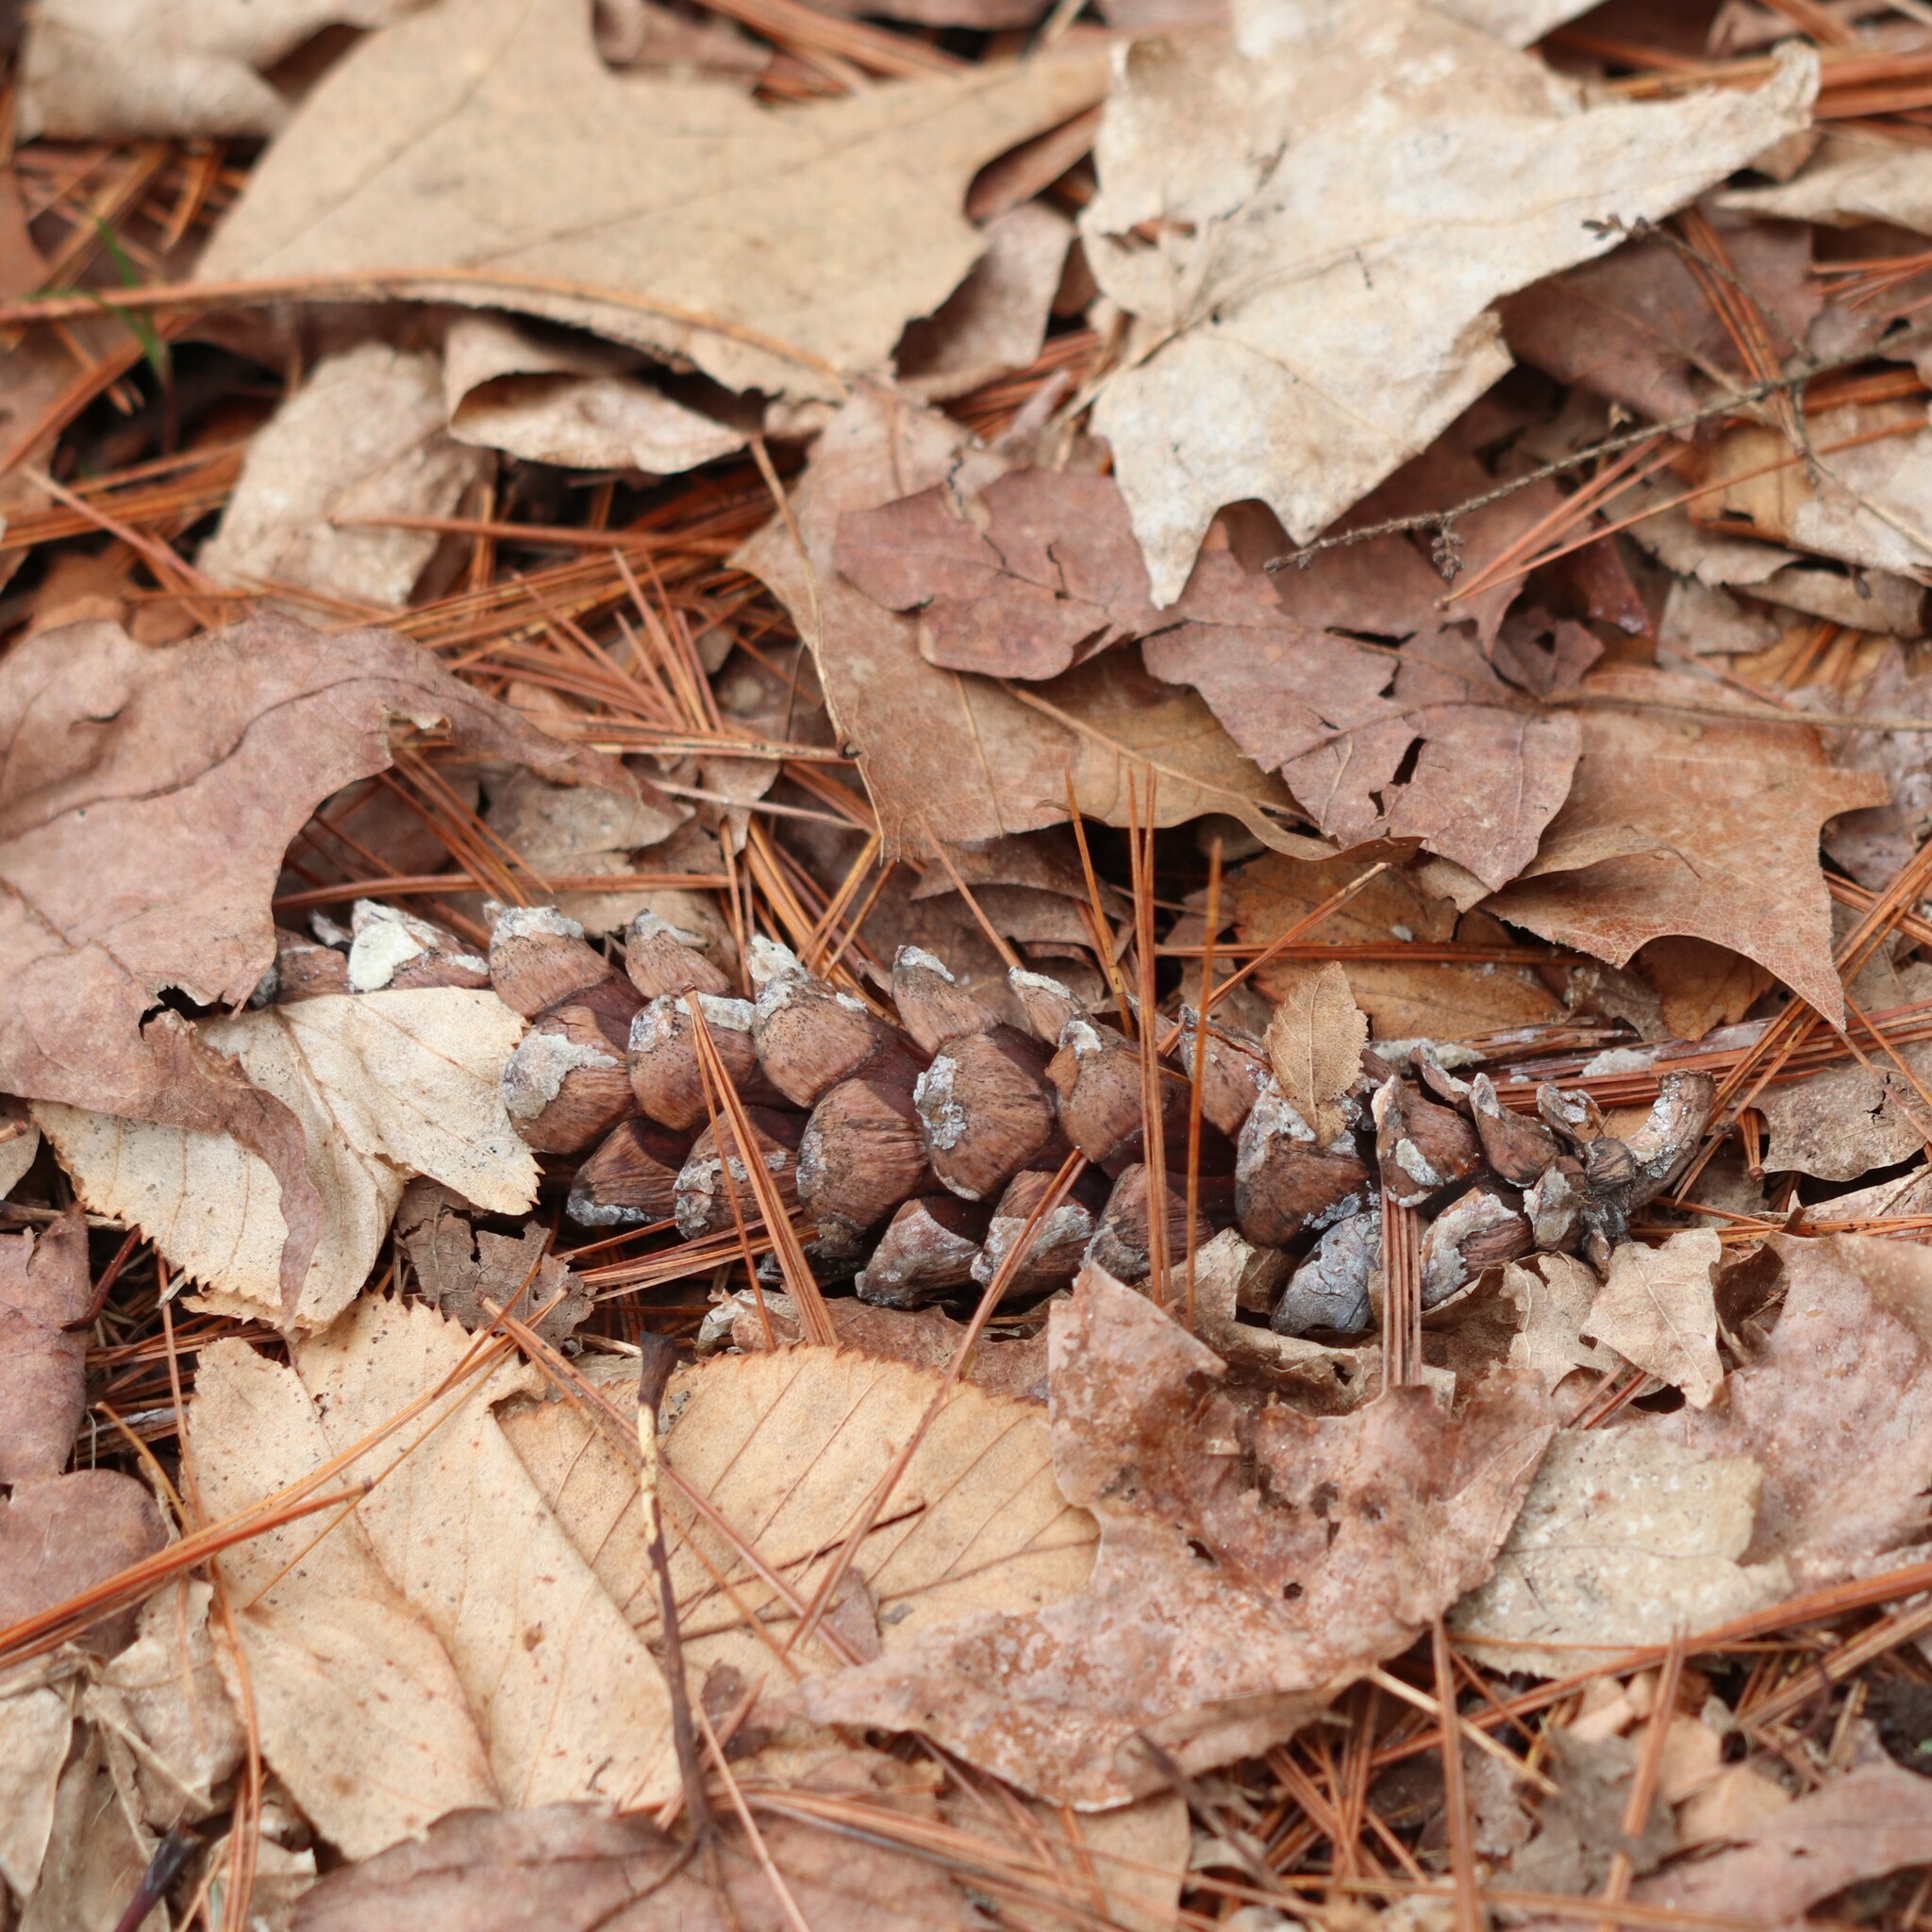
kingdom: Plantae
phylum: Tracheophyta
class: Pinopsida
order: Pinales
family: Pinaceae
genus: Pinus
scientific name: Pinus strobus
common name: Weymouth pine
